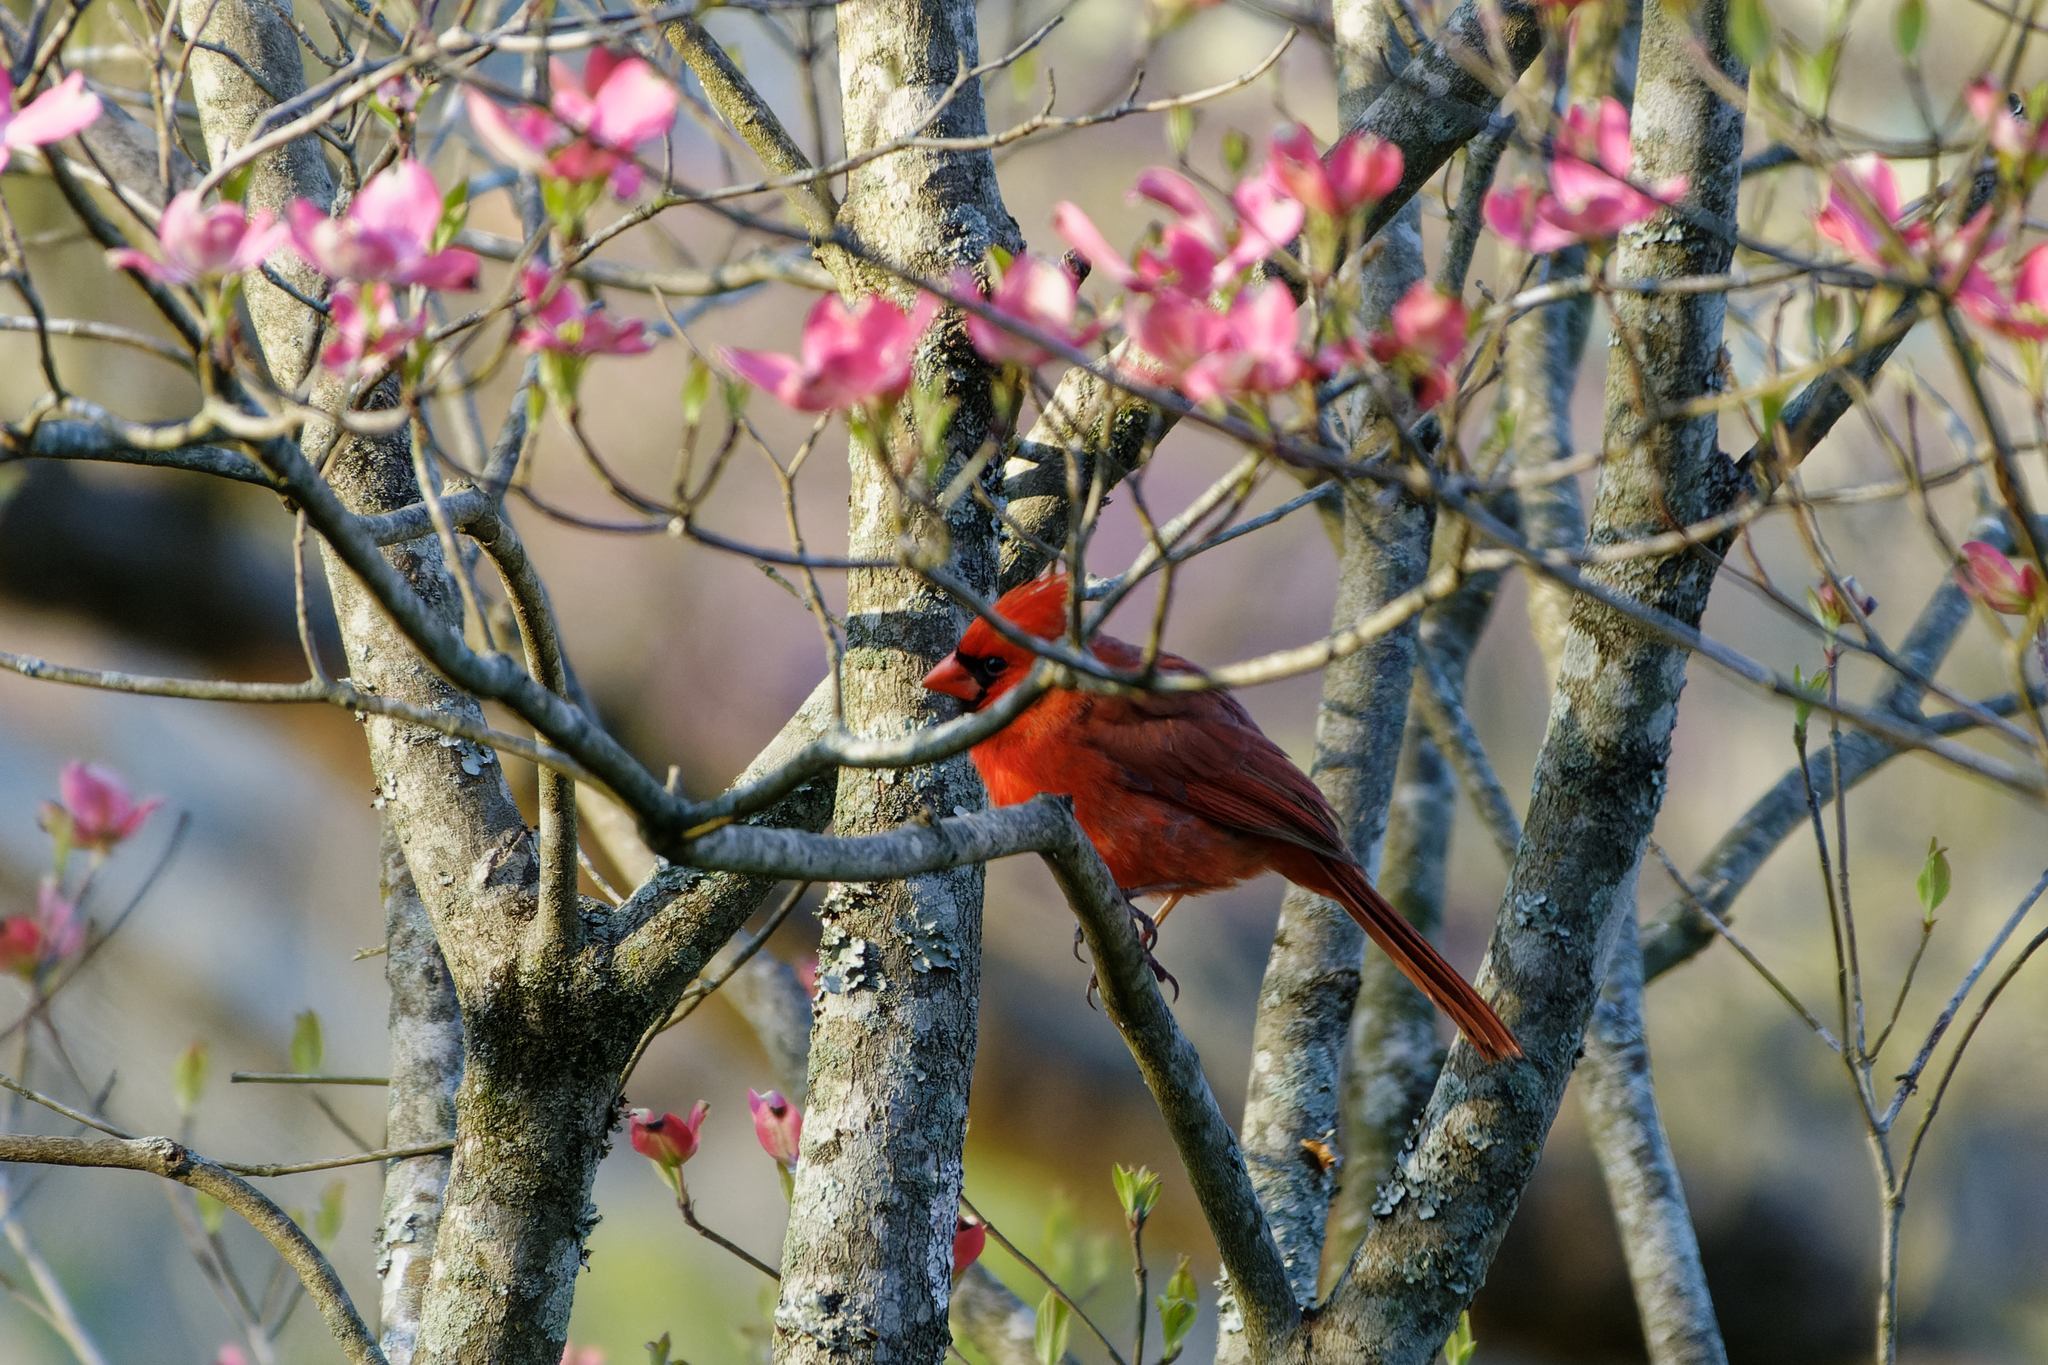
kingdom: Animalia
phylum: Chordata
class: Aves
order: Passeriformes
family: Cardinalidae
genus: Cardinalis
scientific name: Cardinalis cardinalis
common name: Northern cardinal
